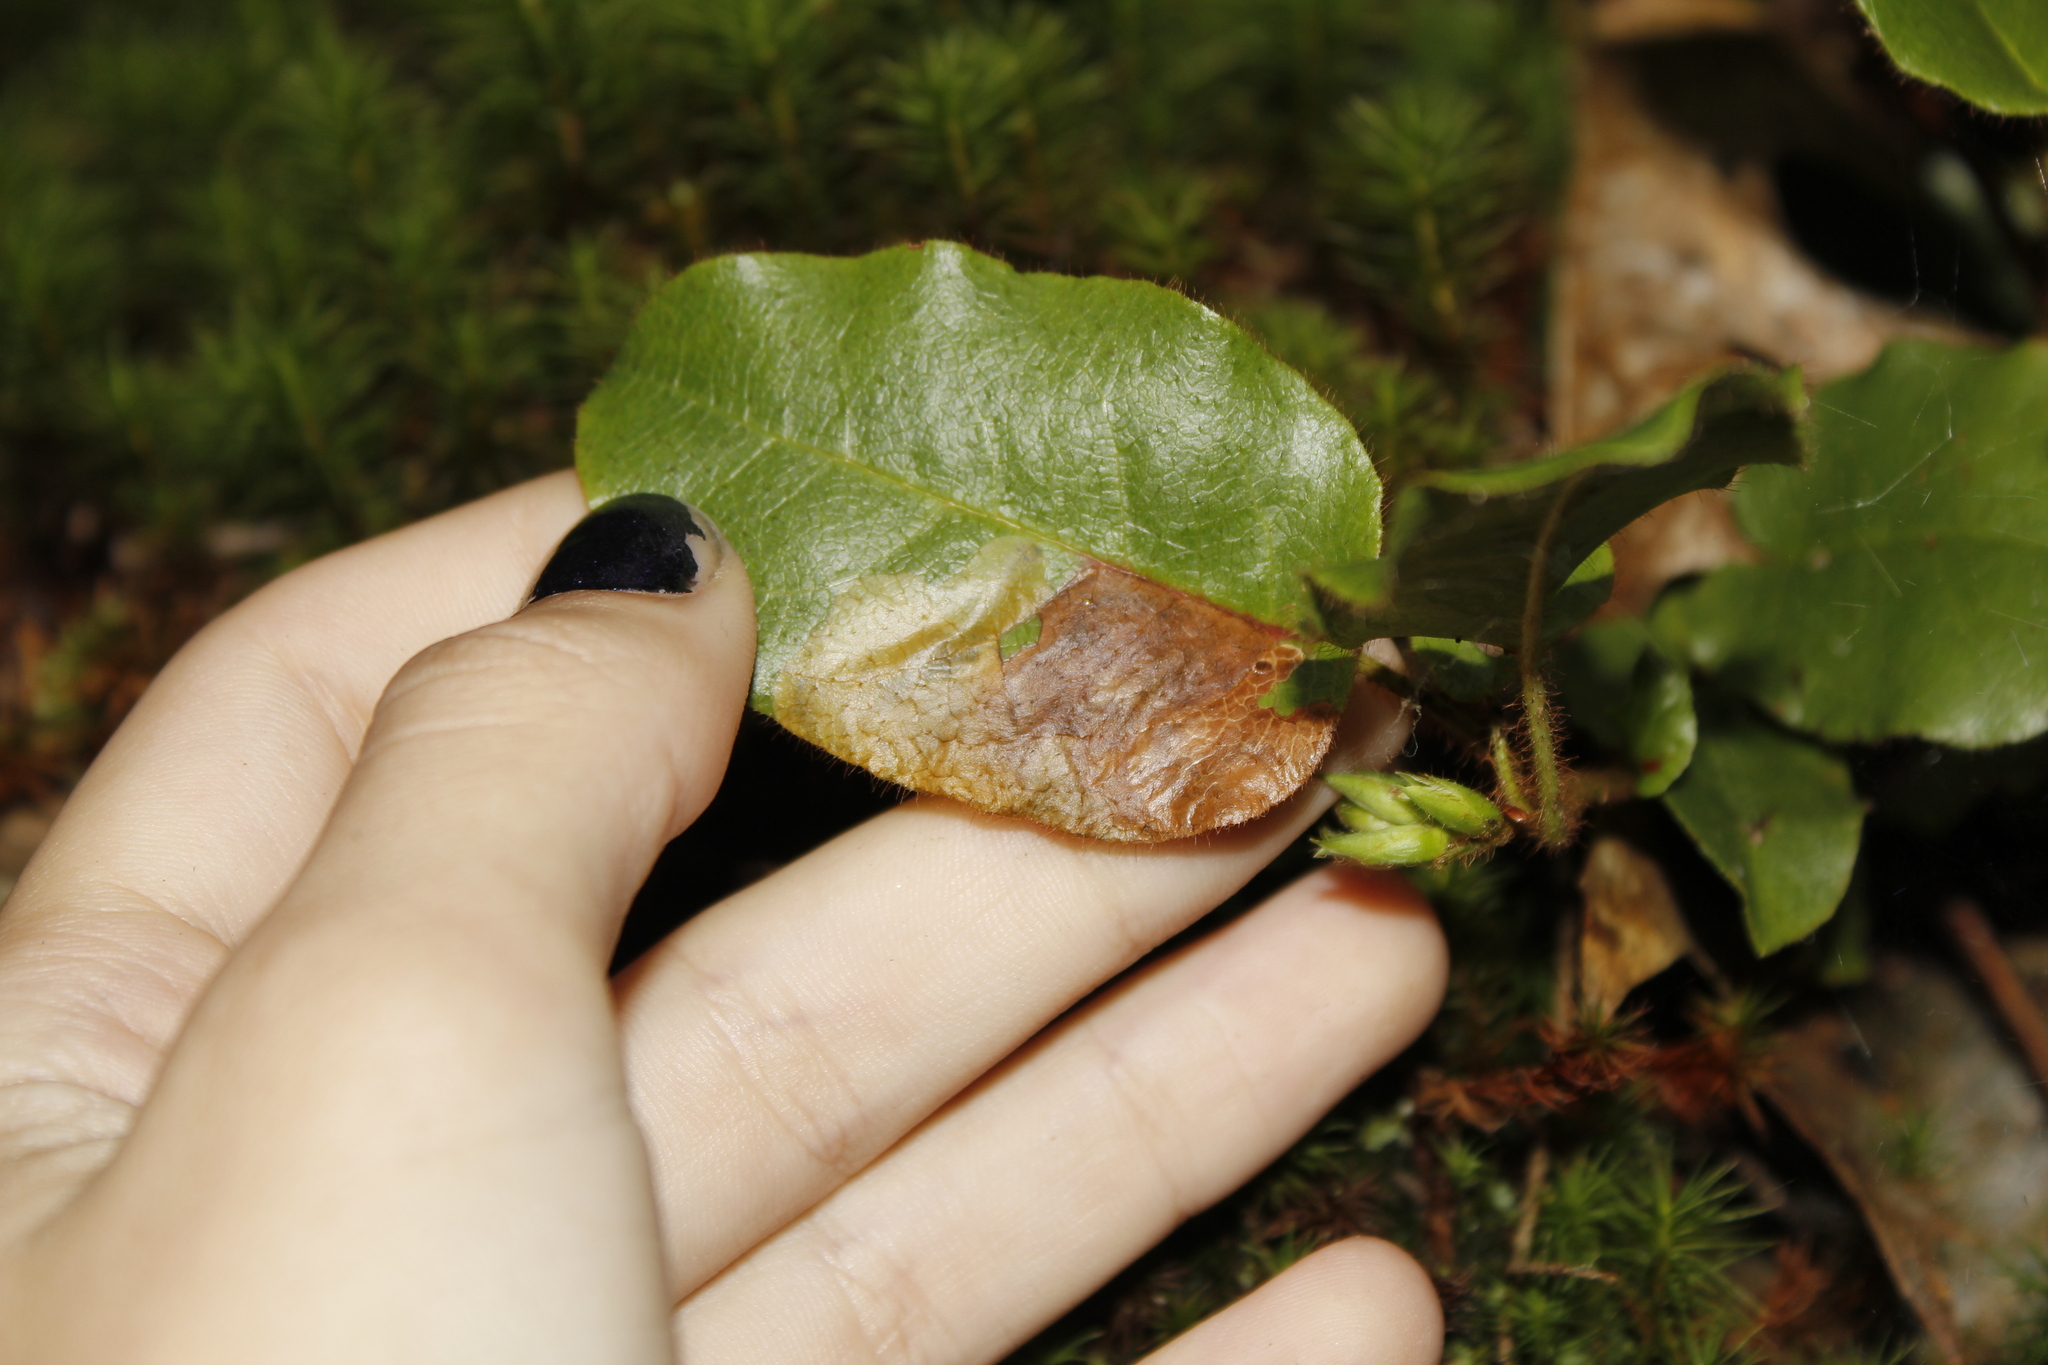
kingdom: Animalia
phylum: Arthropoda
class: Insecta
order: Coleoptera
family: Buprestidae
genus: Brachys
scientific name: Brachys
